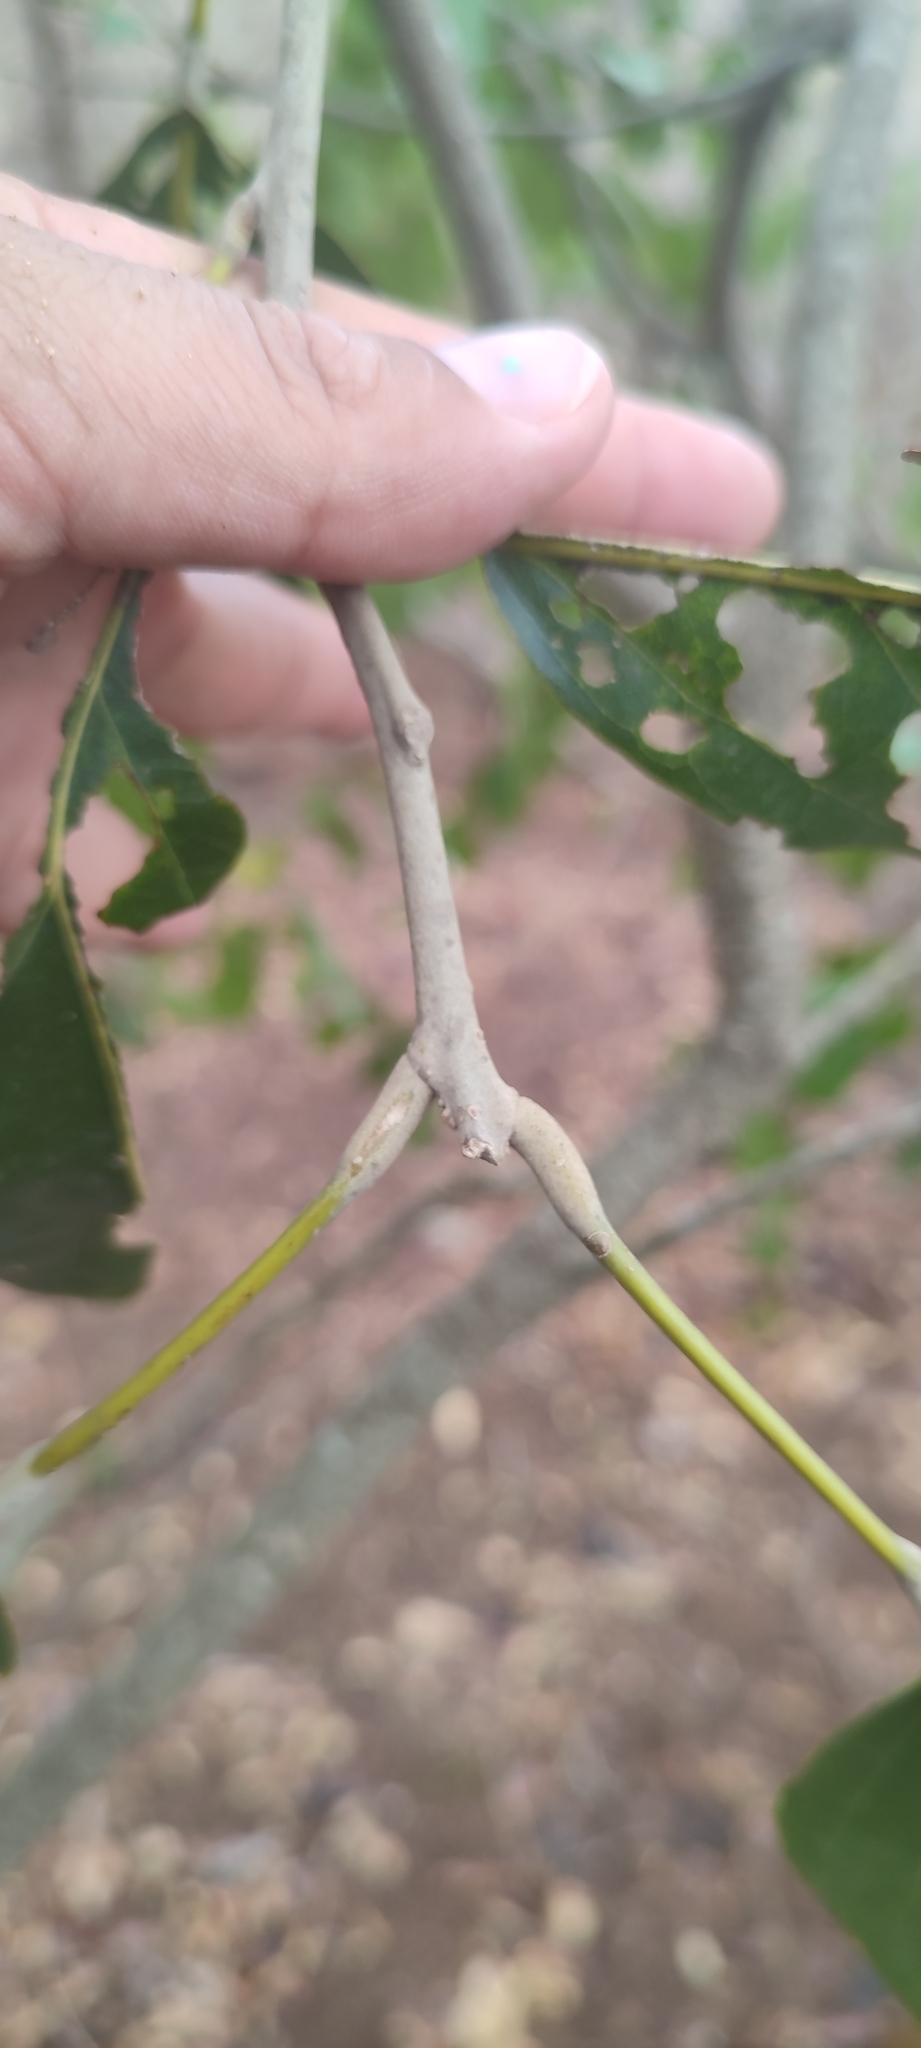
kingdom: Plantae
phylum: Tracheophyta
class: Magnoliopsida
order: Brassicales
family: Capparaceae
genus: Morisonia
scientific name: Morisonia americana
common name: Wild mesple
